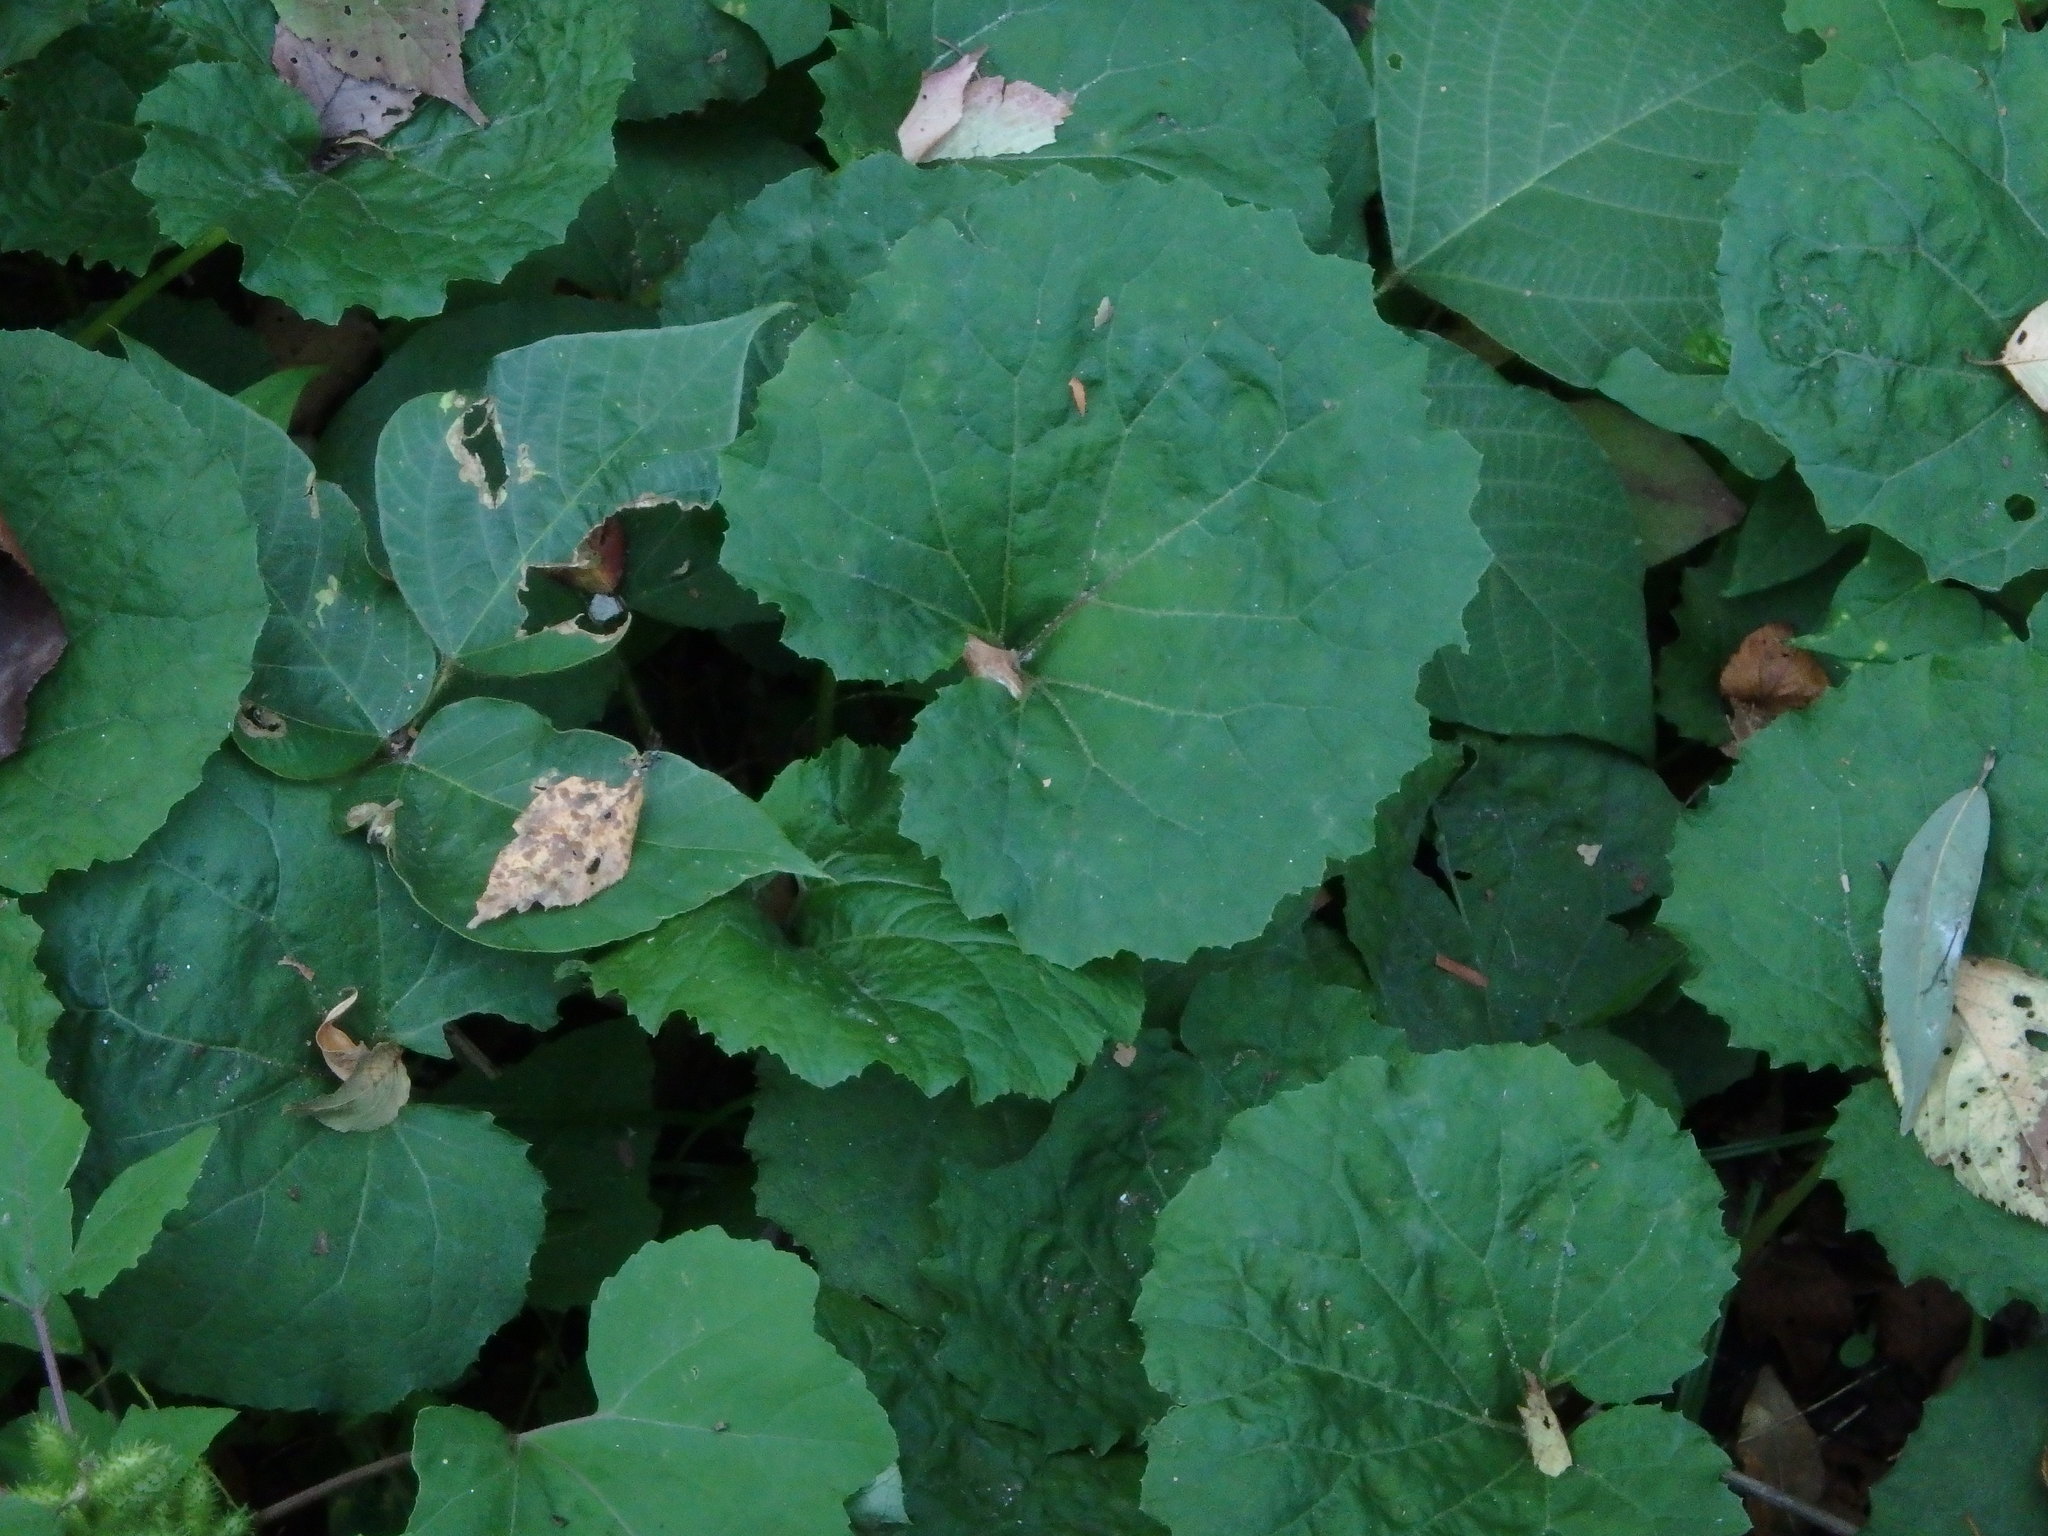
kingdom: Plantae
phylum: Tracheophyta
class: Magnoliopsida
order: Asterales
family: Asteraceae
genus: Farfugium
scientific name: Farfugium japonicum
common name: Leopardplant
